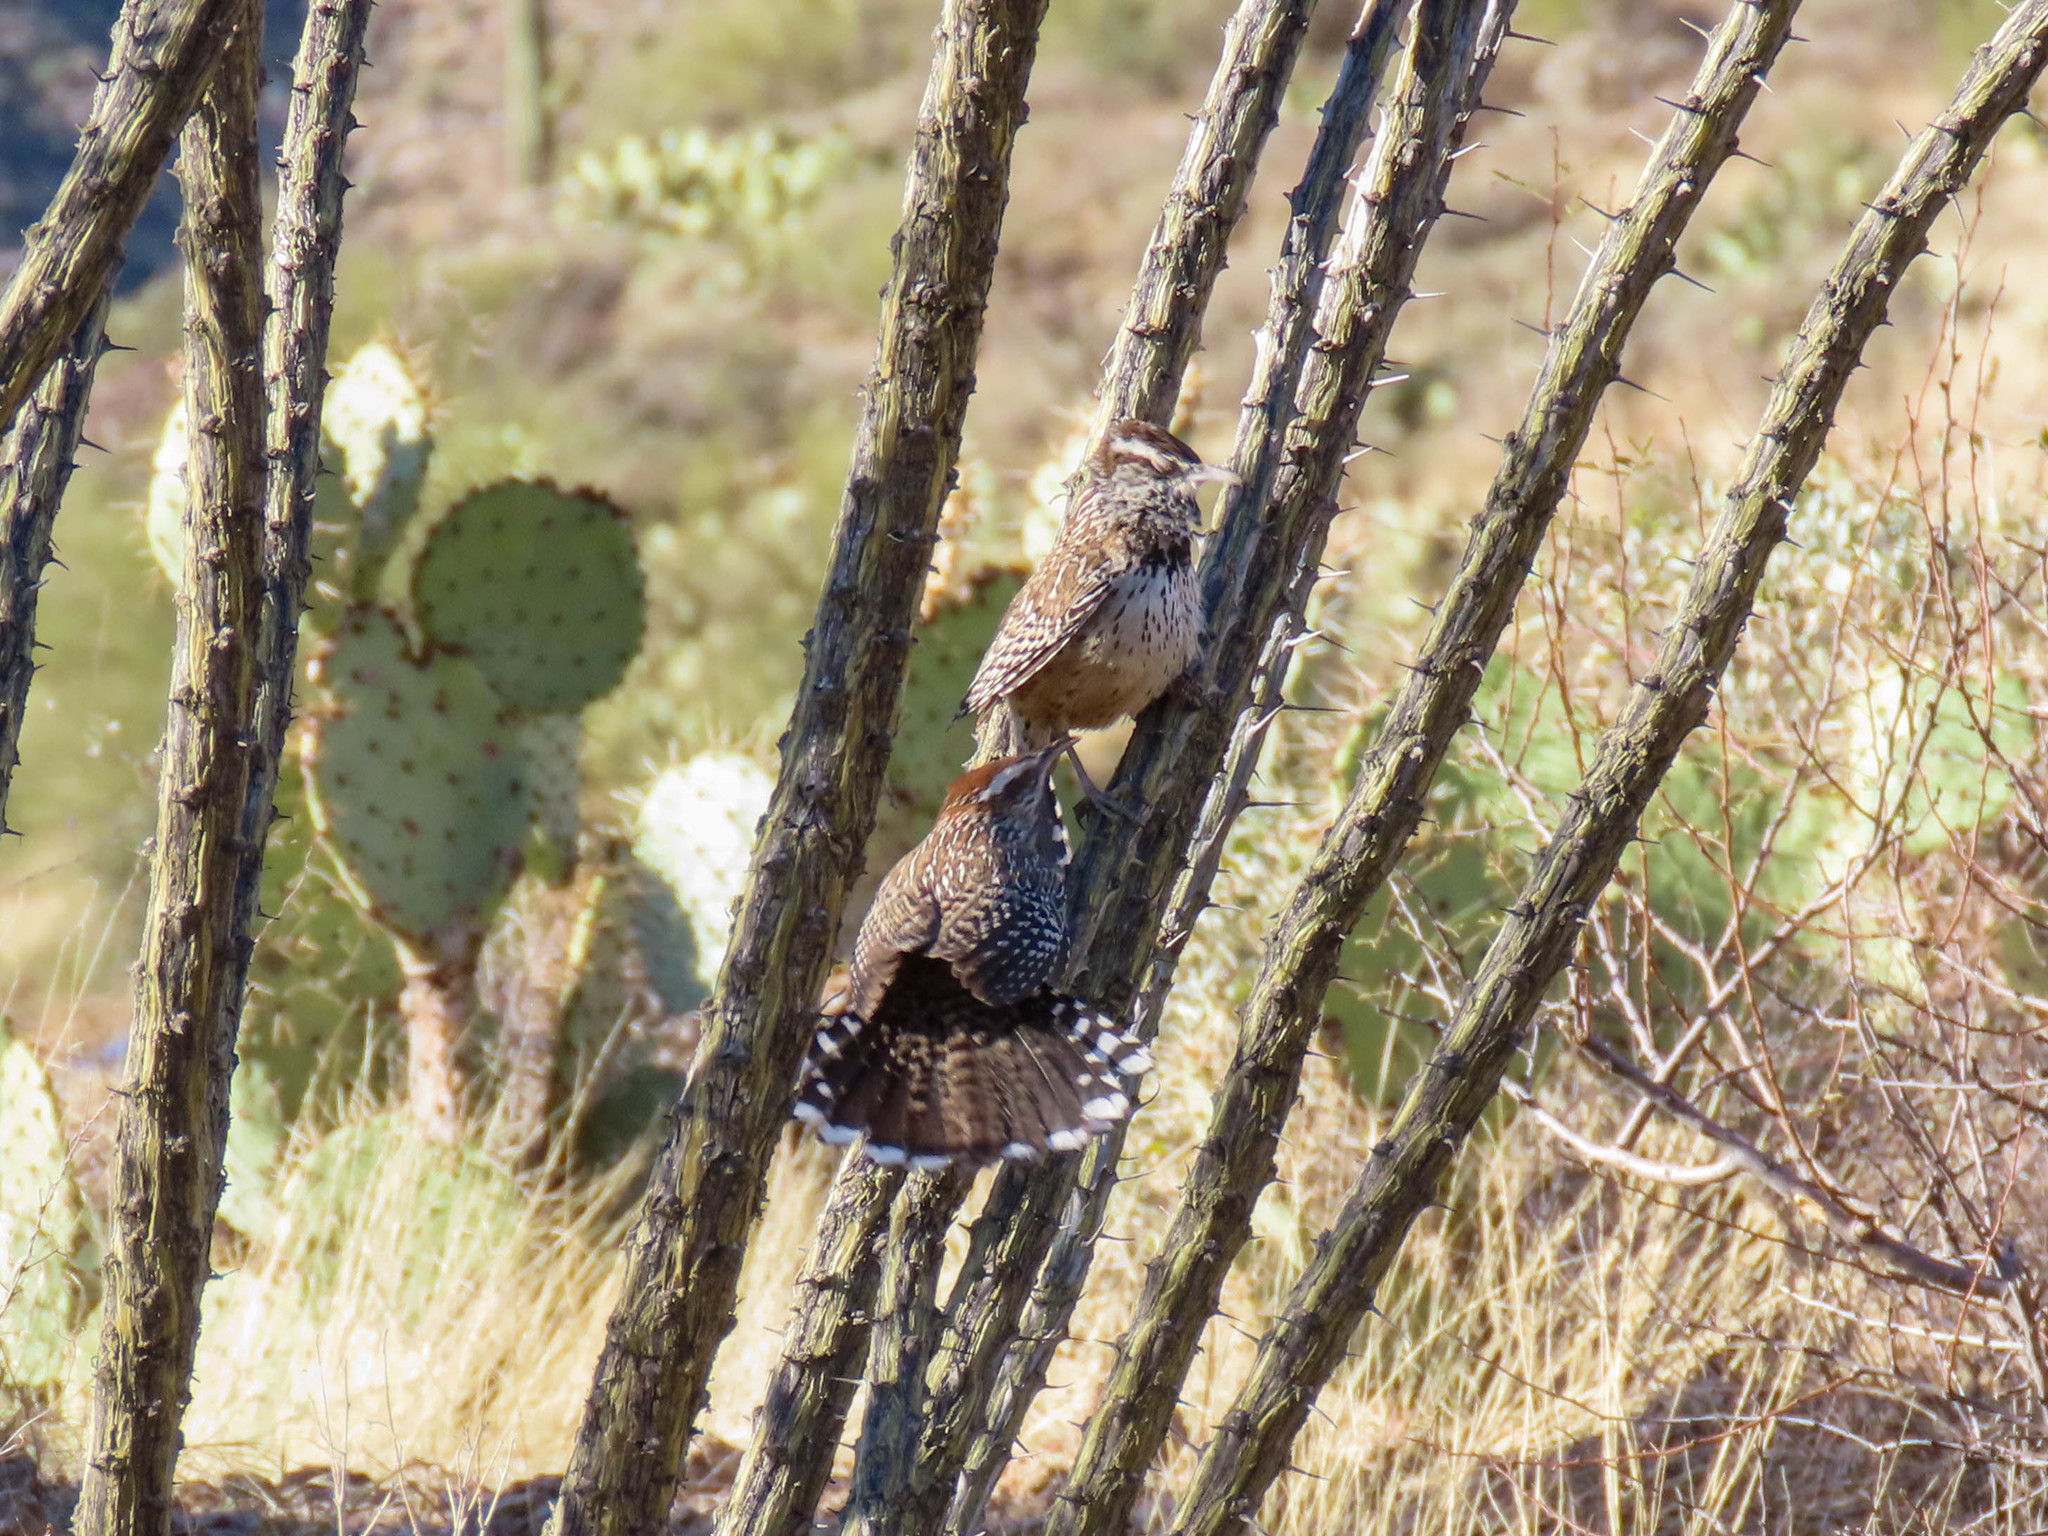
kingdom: Animalia
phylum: Chordata
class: Aves
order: Passeriformes
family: Troglodytidae
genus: Campylorhynchus
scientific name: Campylorhynchus brunneicapillus
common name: Cactus wren
